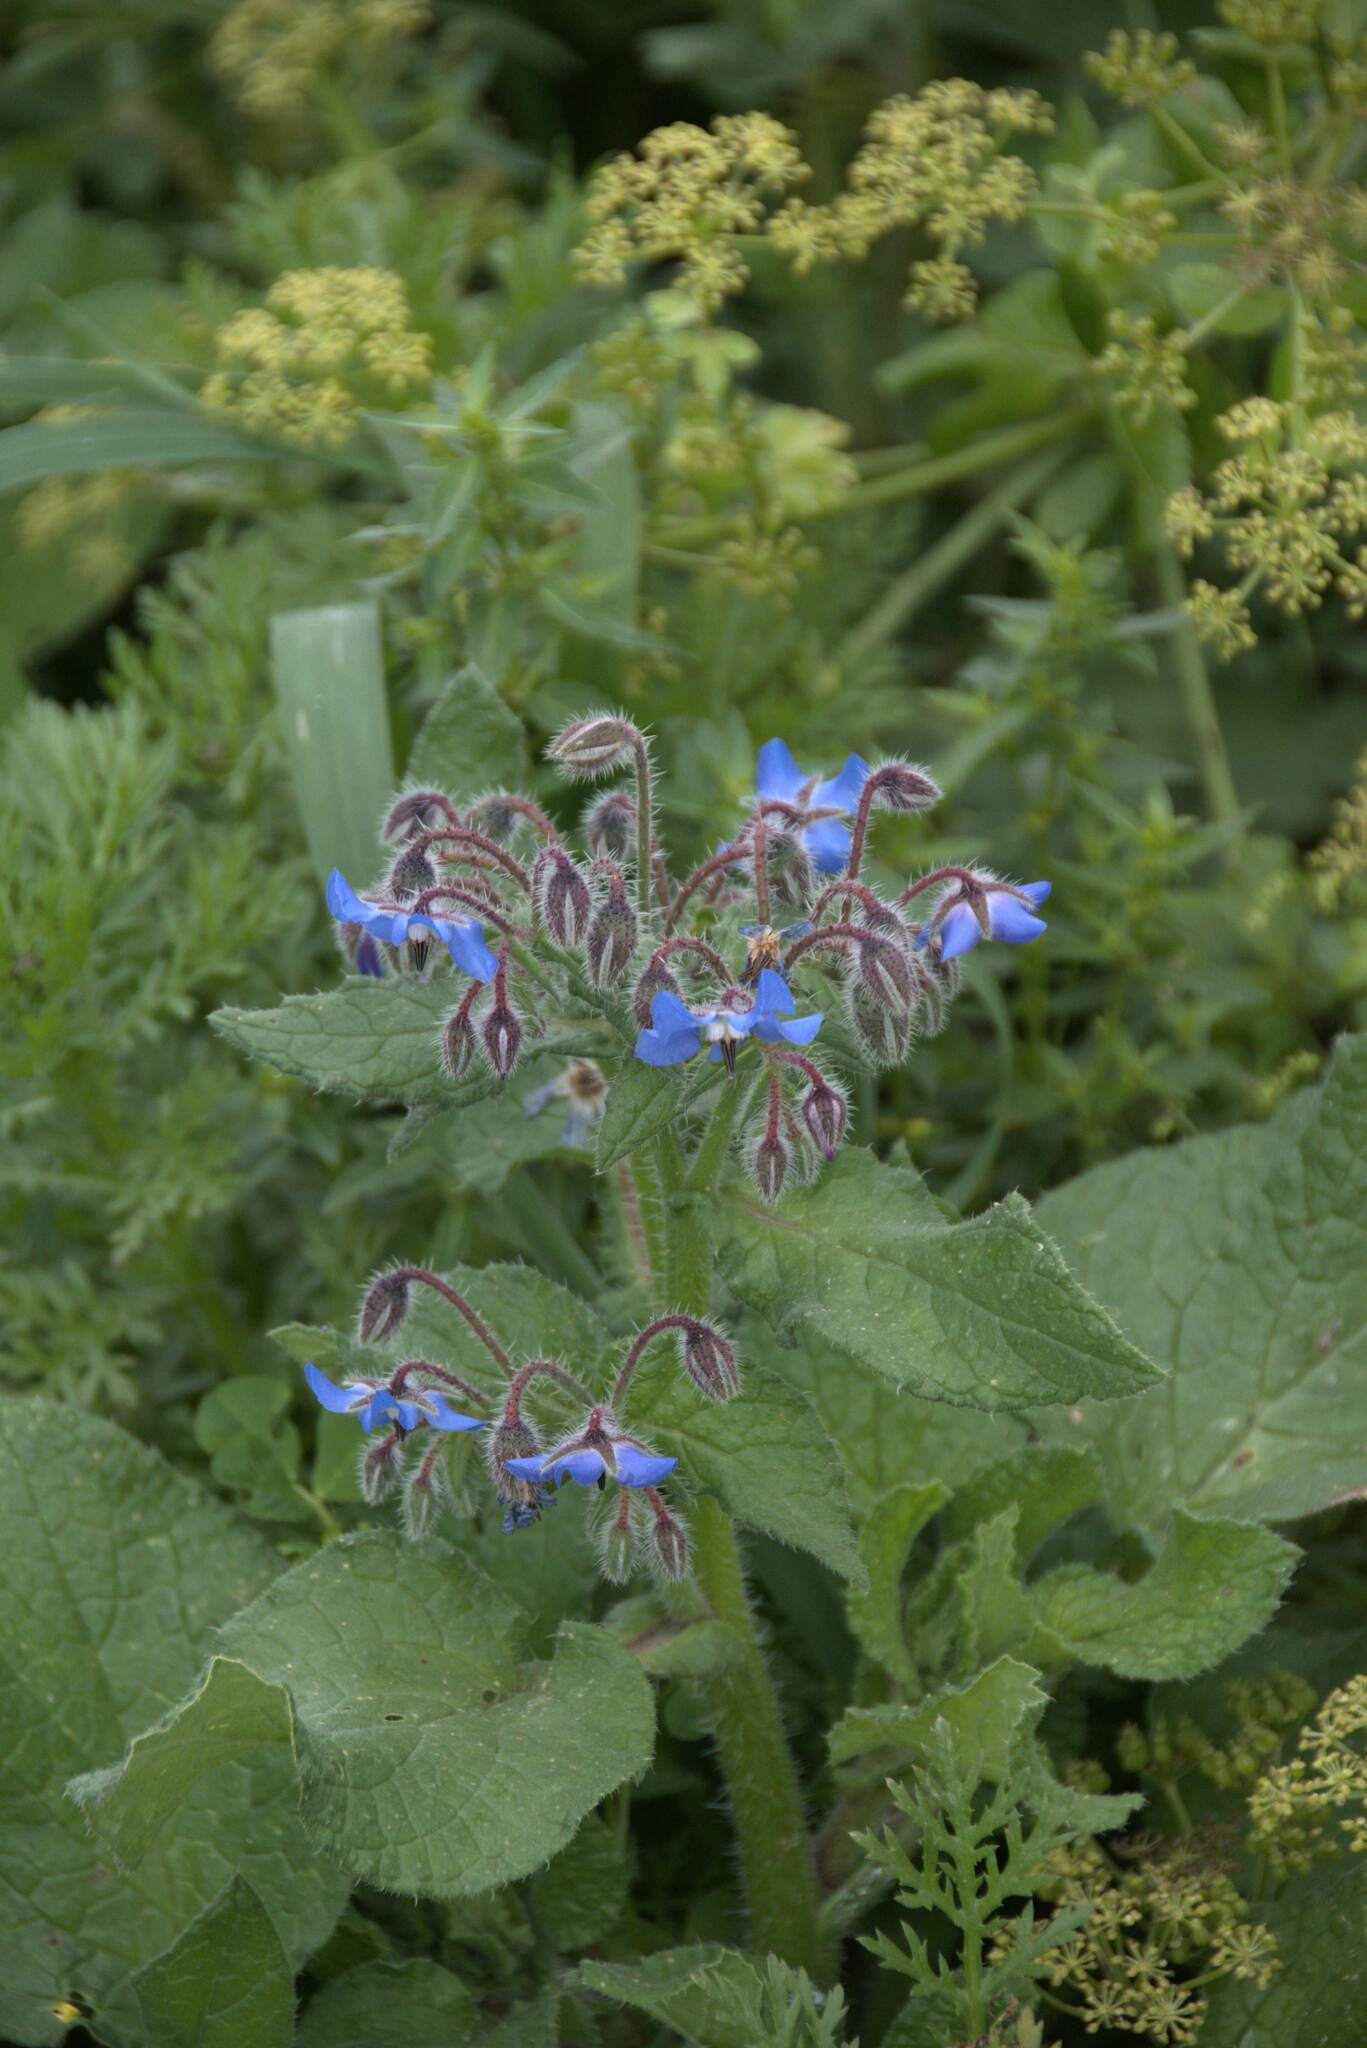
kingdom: Plantae
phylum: Tracheophyta
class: Magnoliopsida
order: Boraginales
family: Boraginaceae
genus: Borago
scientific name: Borago officinalis
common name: Borage
